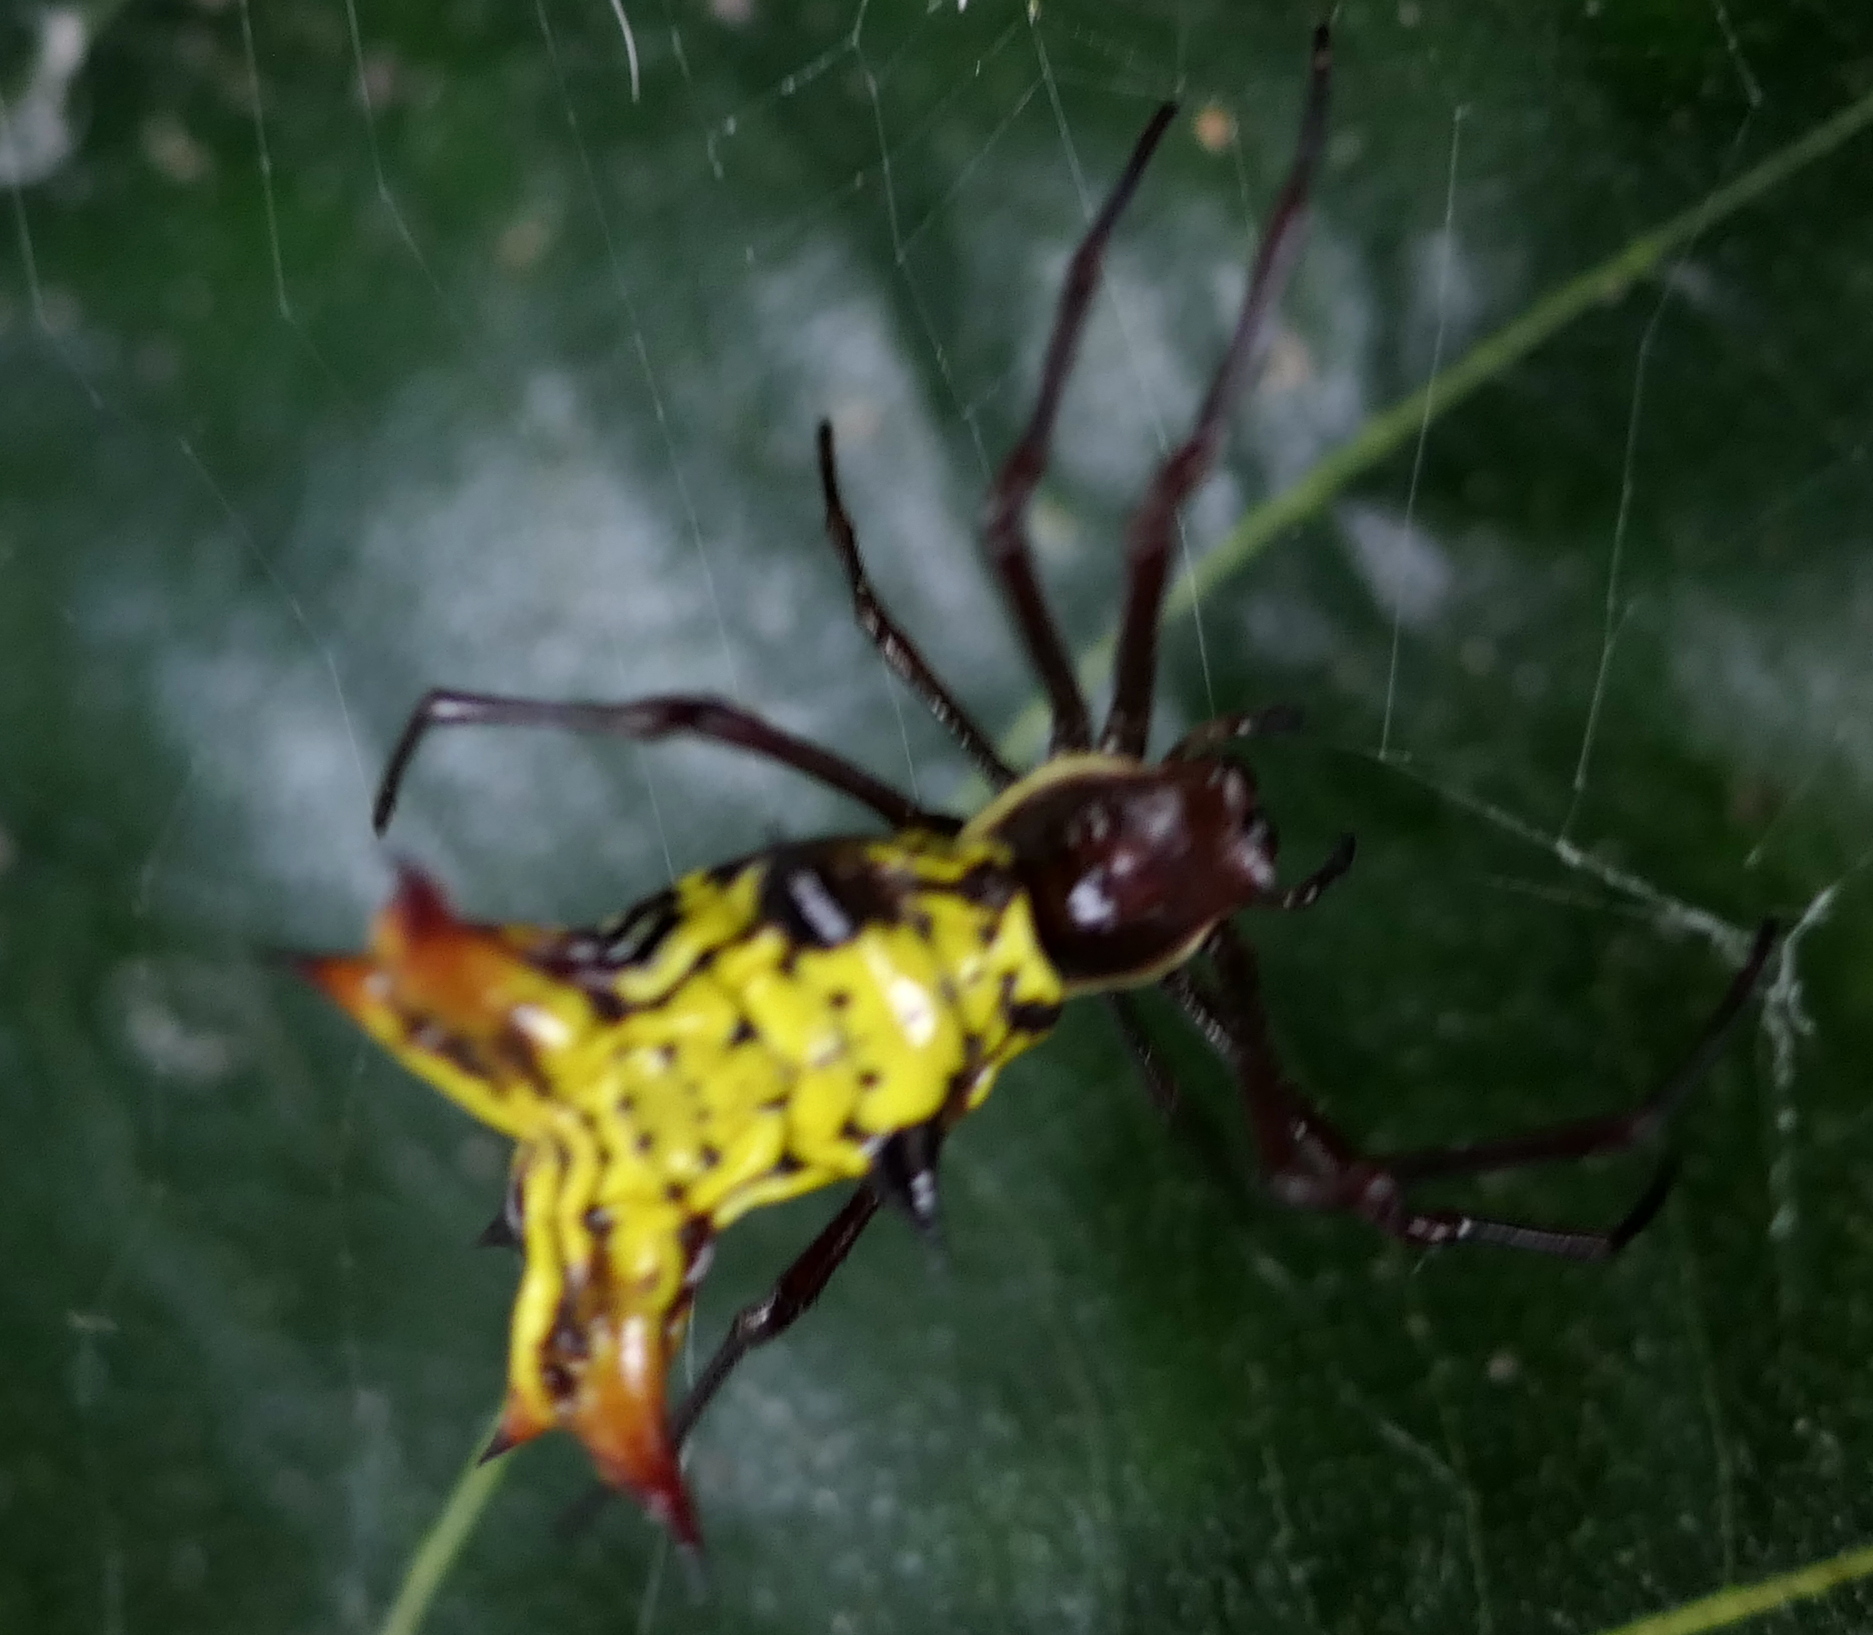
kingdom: Animalia
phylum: Arthropoda
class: Arachnida
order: Araneae
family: Araneidae
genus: Micrathena
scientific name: Micrathena fissispina
